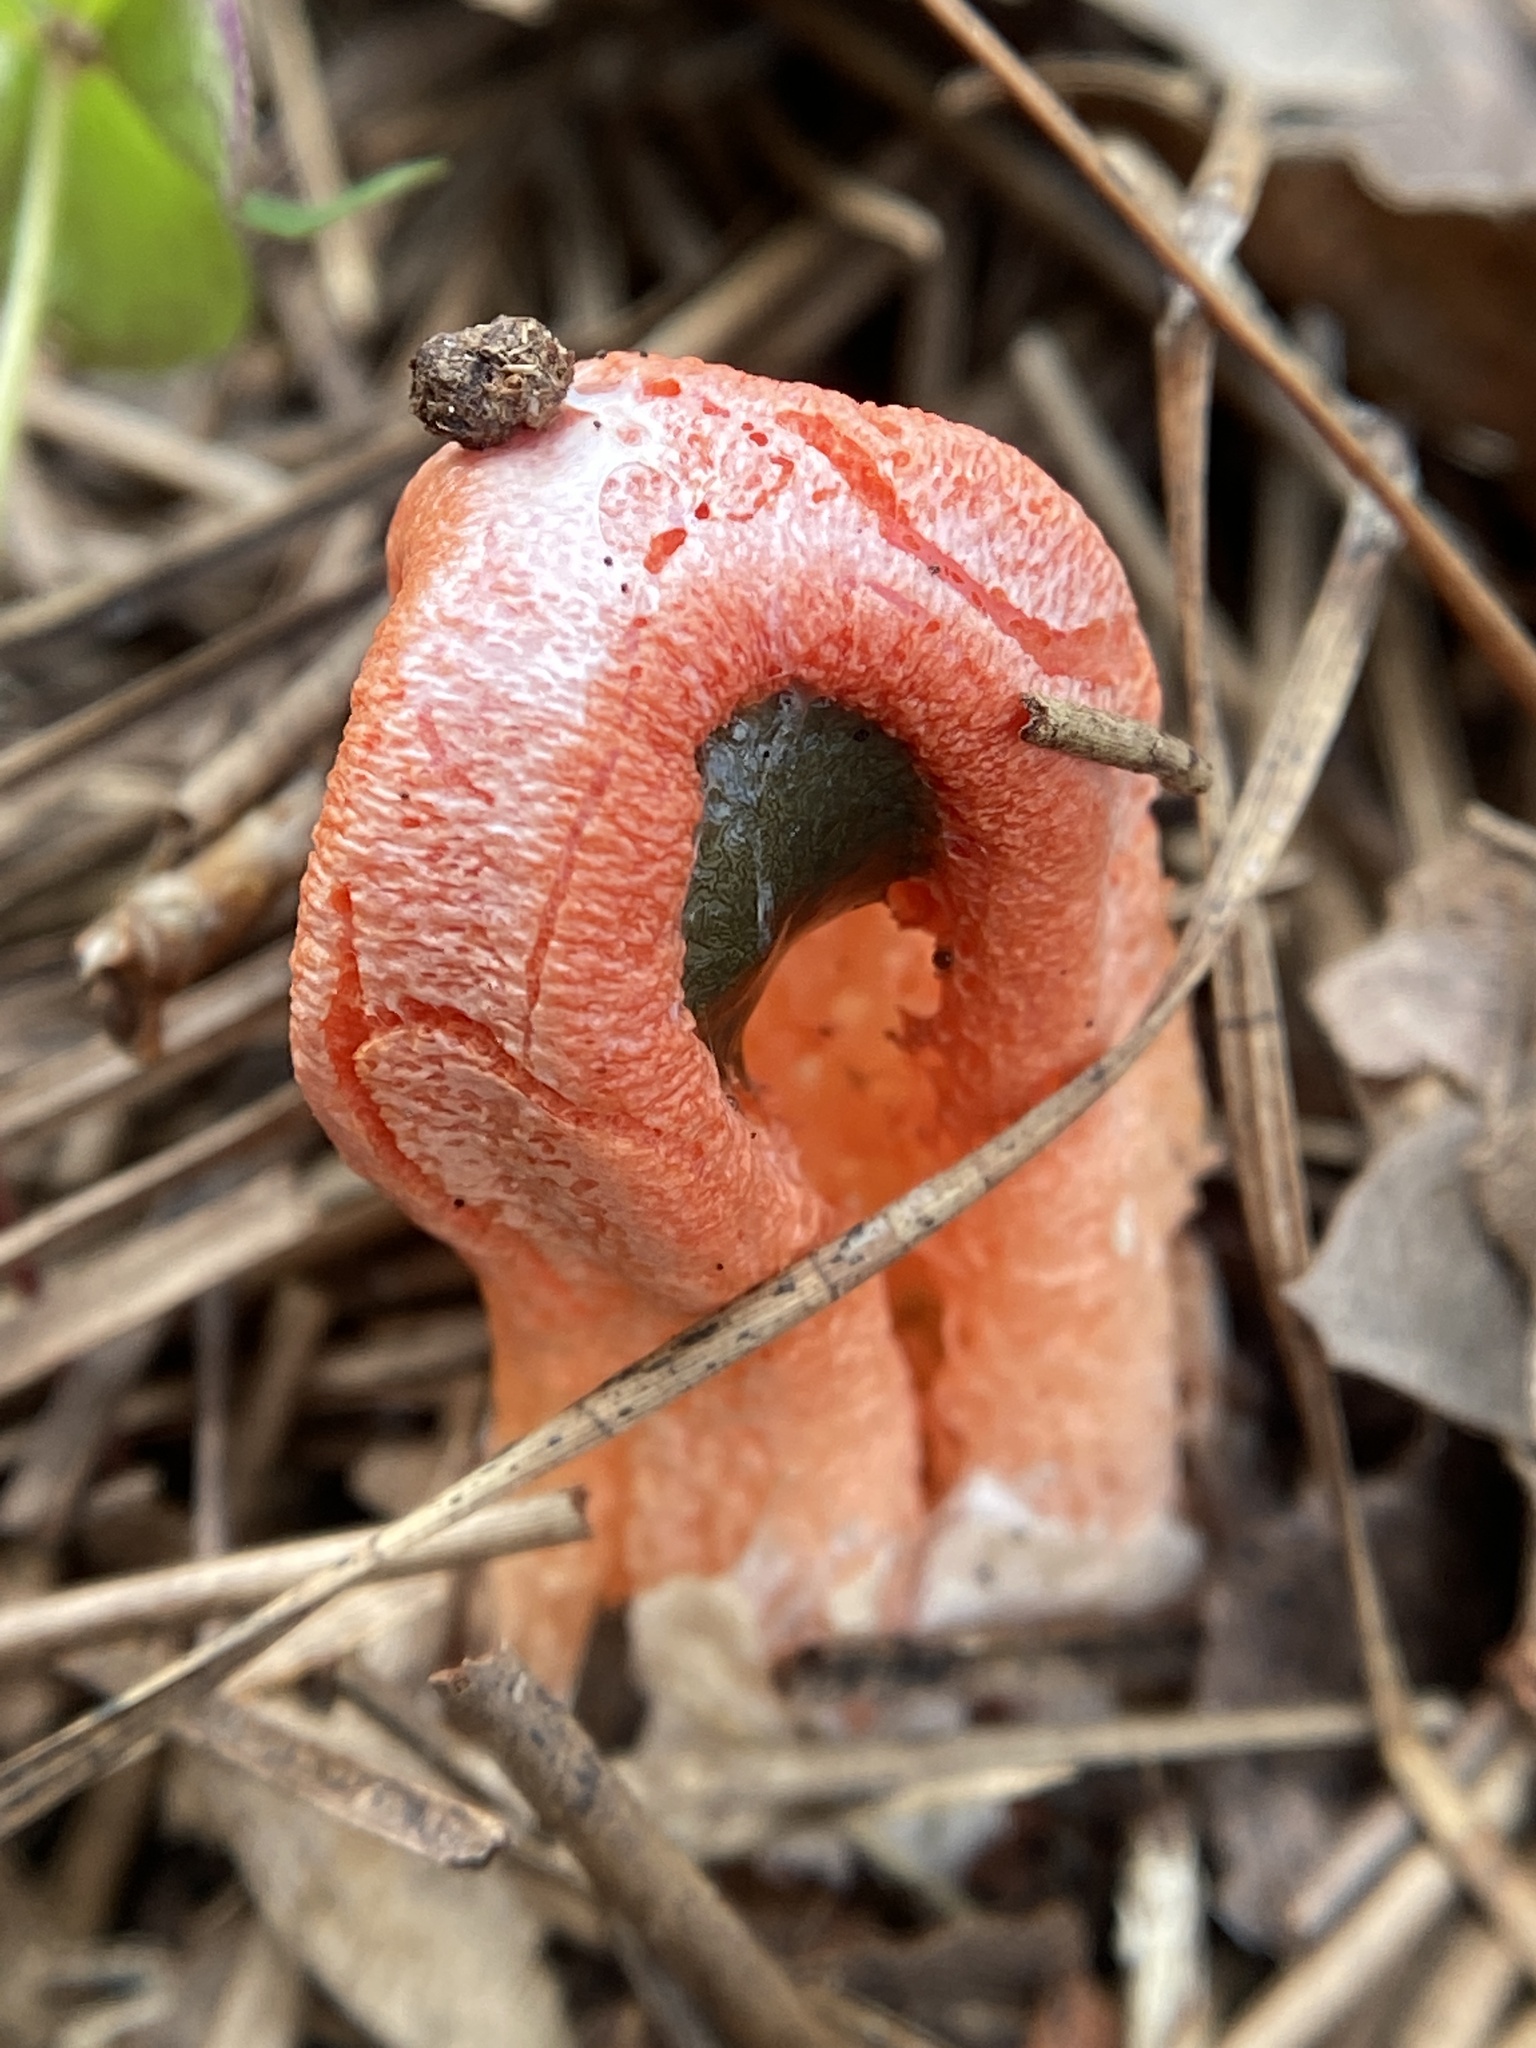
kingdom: Fungi
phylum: Basidiomycota
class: Agaricomycetes
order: Phallales
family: Phallaceae
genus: Clathrus
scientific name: Clathrus columnatus
